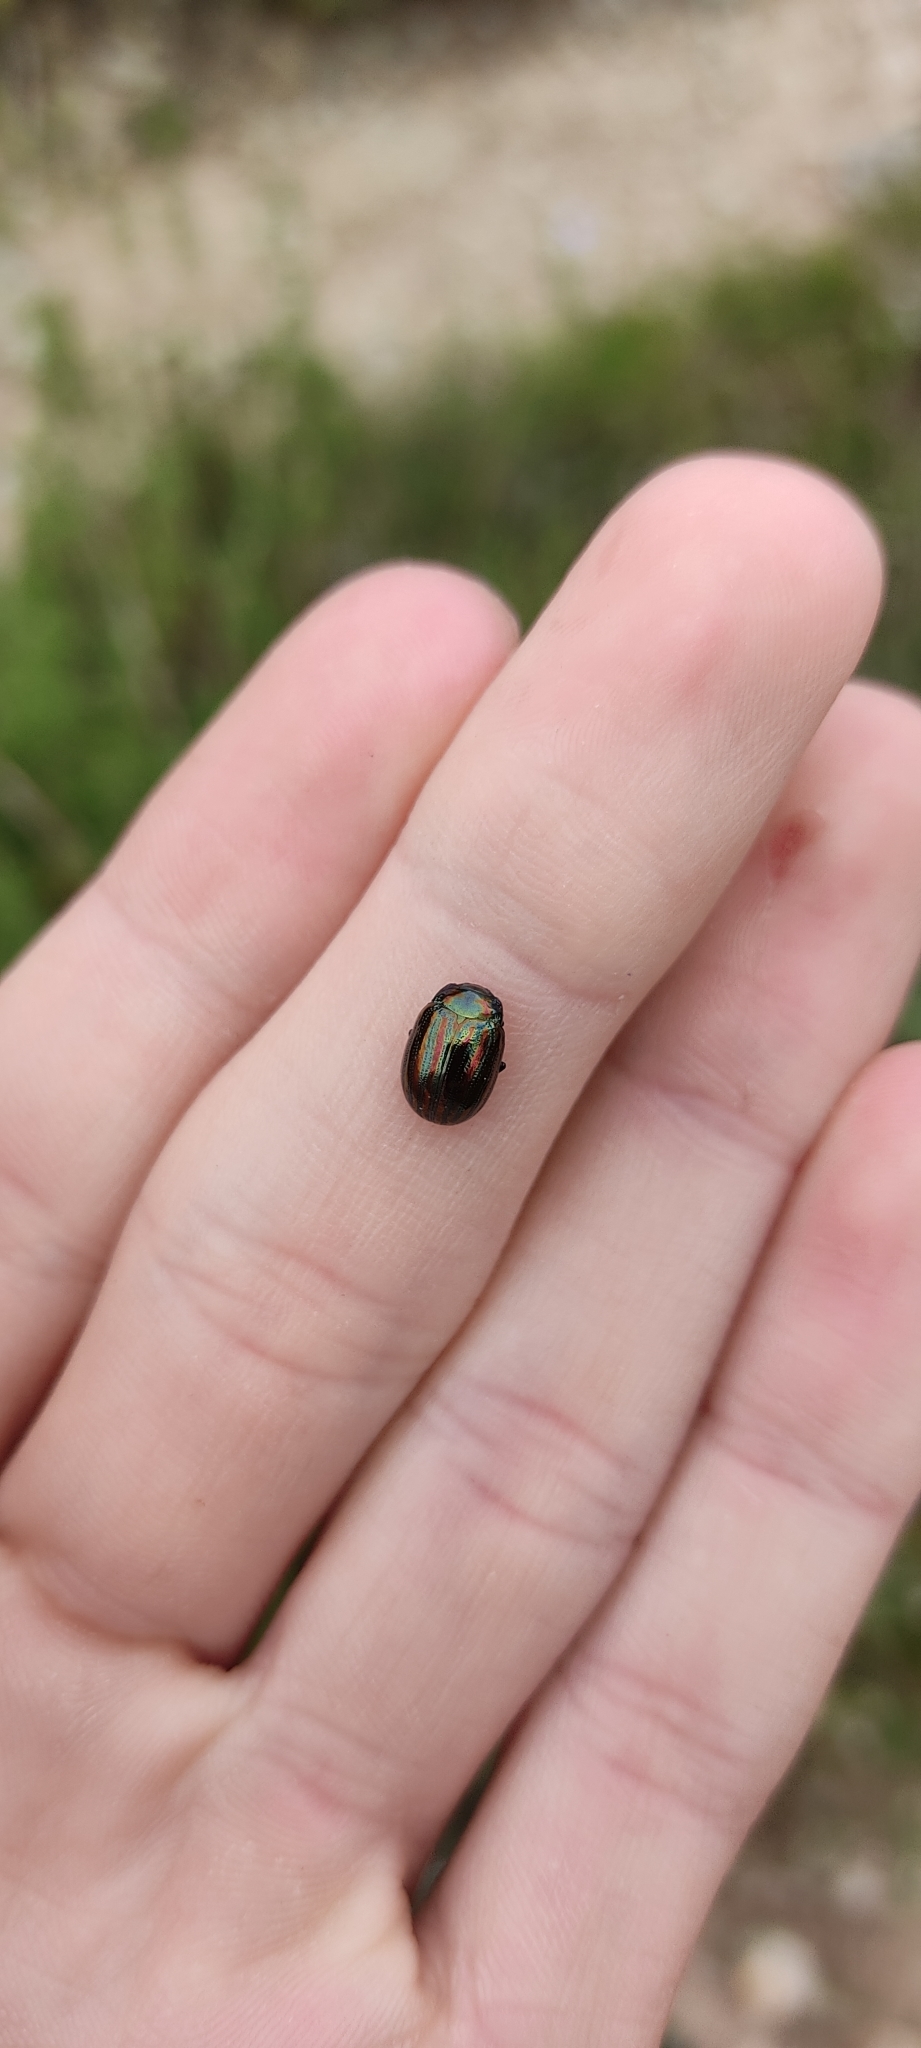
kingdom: Animalia
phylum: Arthropoda
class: Insecta
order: Coleoptera
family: Chrysomelidae
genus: Chrysolina
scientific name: Chrysolina americana
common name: Rosemary beetle
